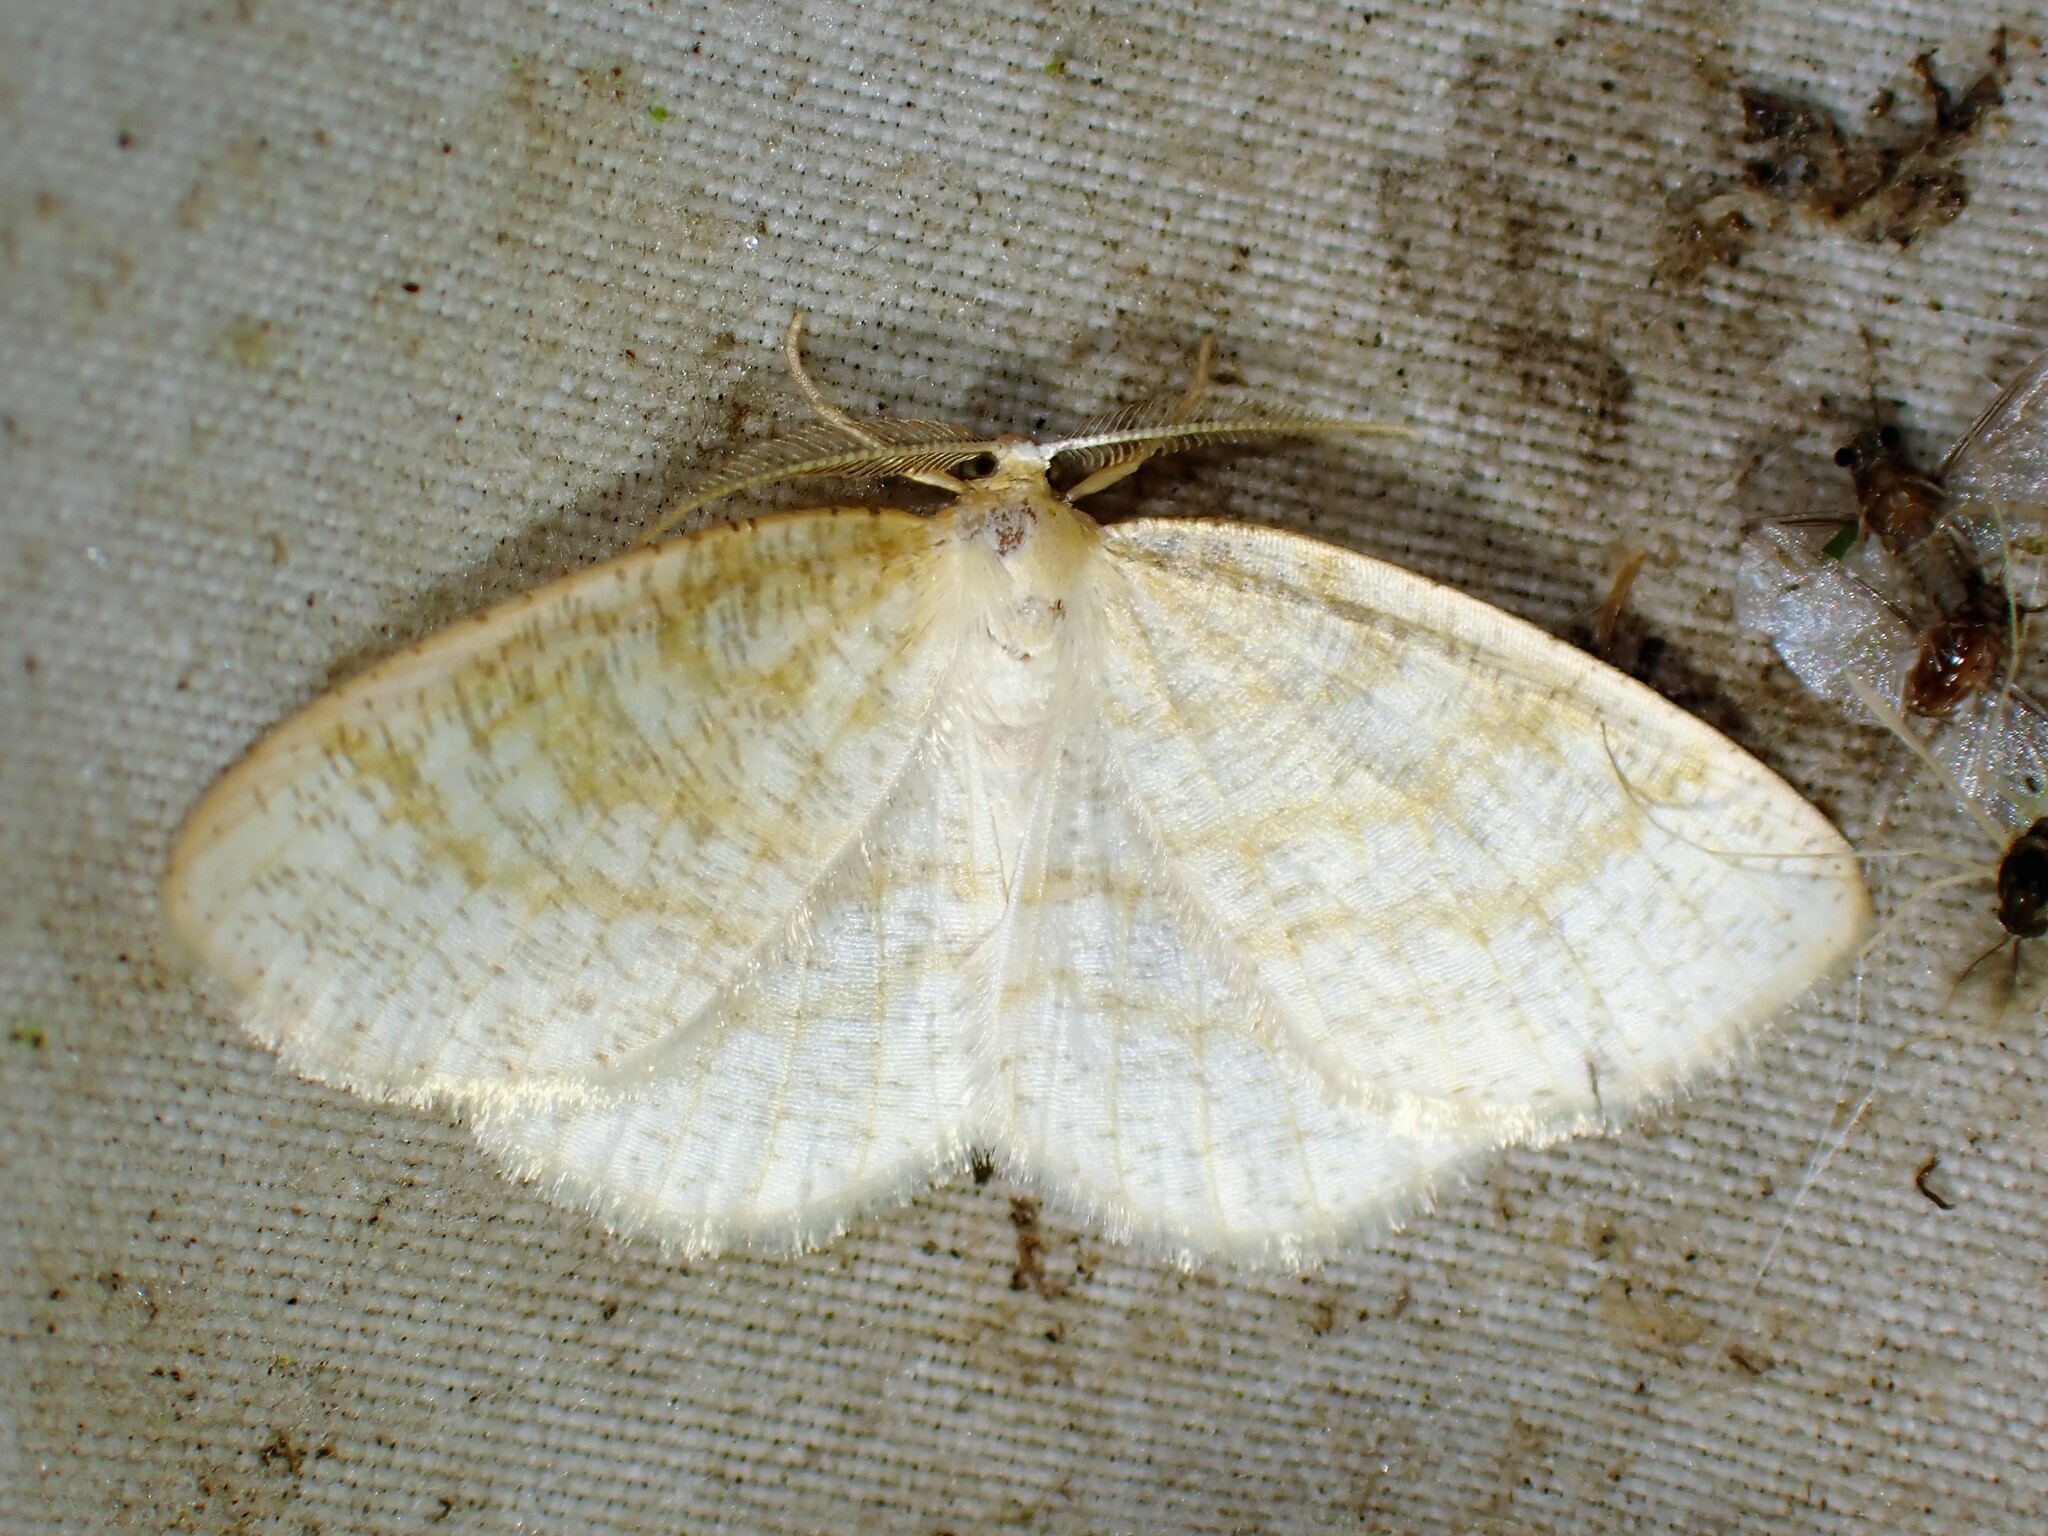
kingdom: Animalia
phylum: Arthropoda
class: Insecta
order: Lepidoptera
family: Geometridae
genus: Cabera
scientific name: Cabera erythemaria
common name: Yellow-dusted cream moth
